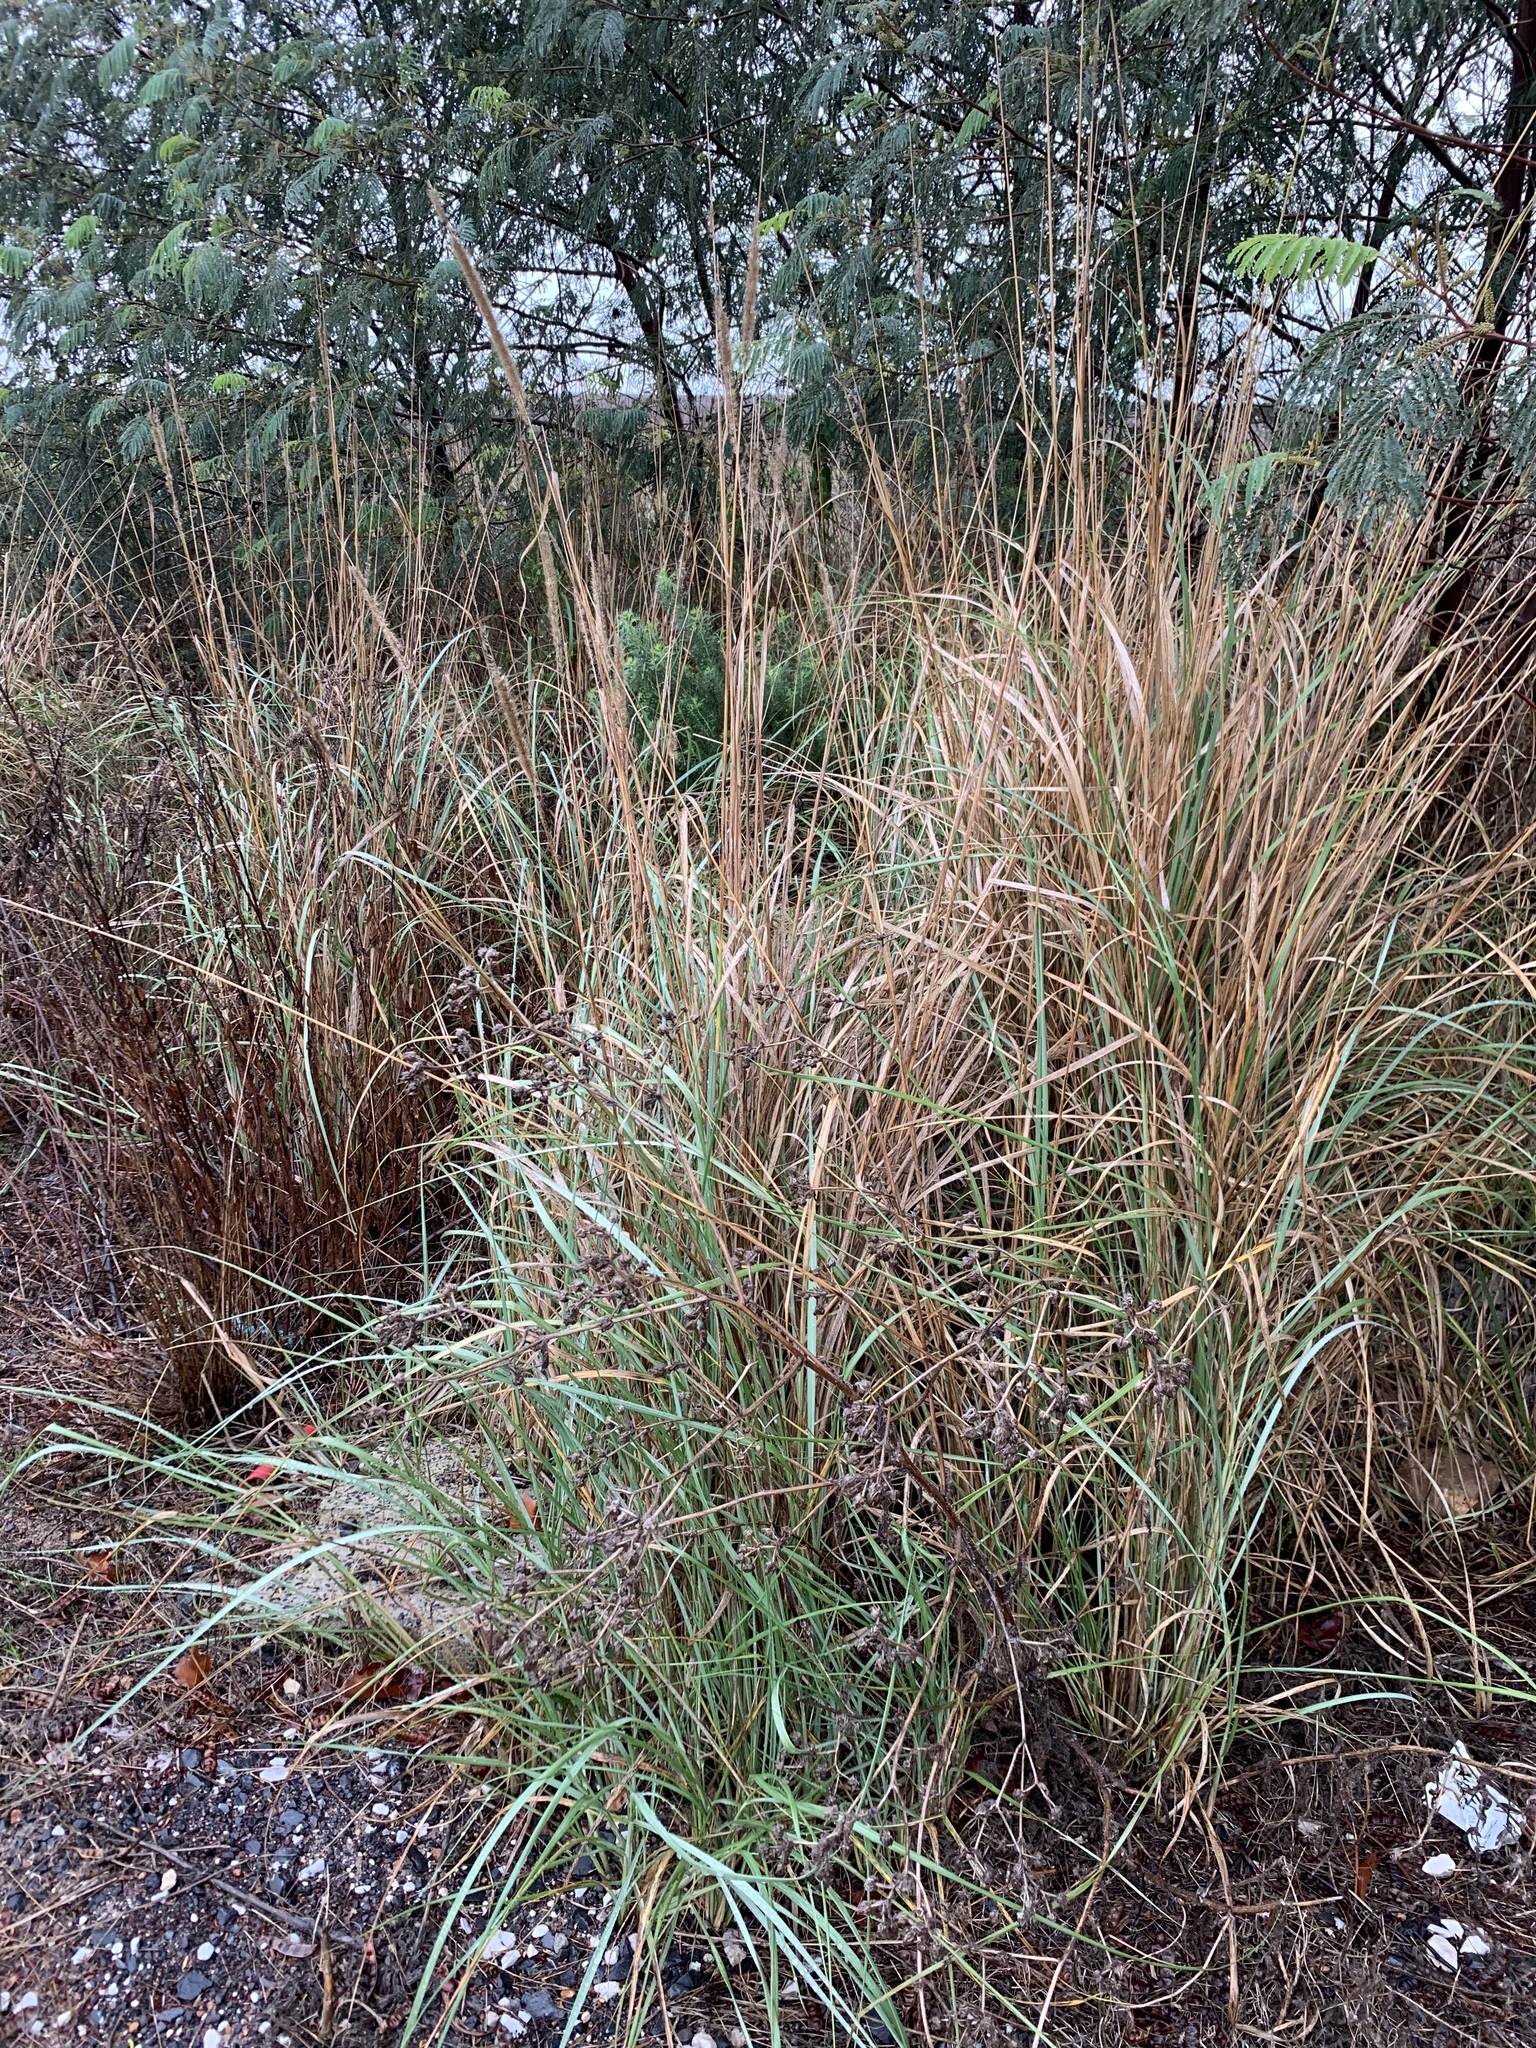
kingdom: Plantae
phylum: Tracheophyta
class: Liliopsida
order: Poales
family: Poaceae
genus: Cenchrus
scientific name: Cenchrus caudatus
